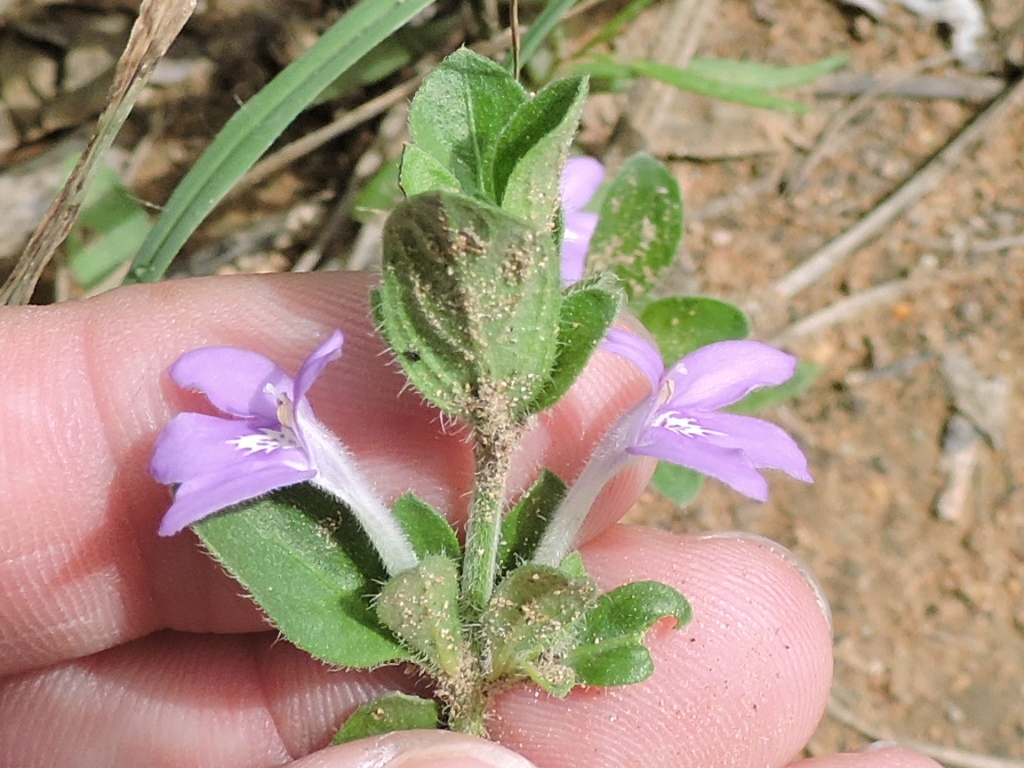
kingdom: Plantae
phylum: Tracheophyta
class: Magnoliopsida
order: Lamiales
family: Acanthaceae
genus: Justicia
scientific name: Justicia pilosella
